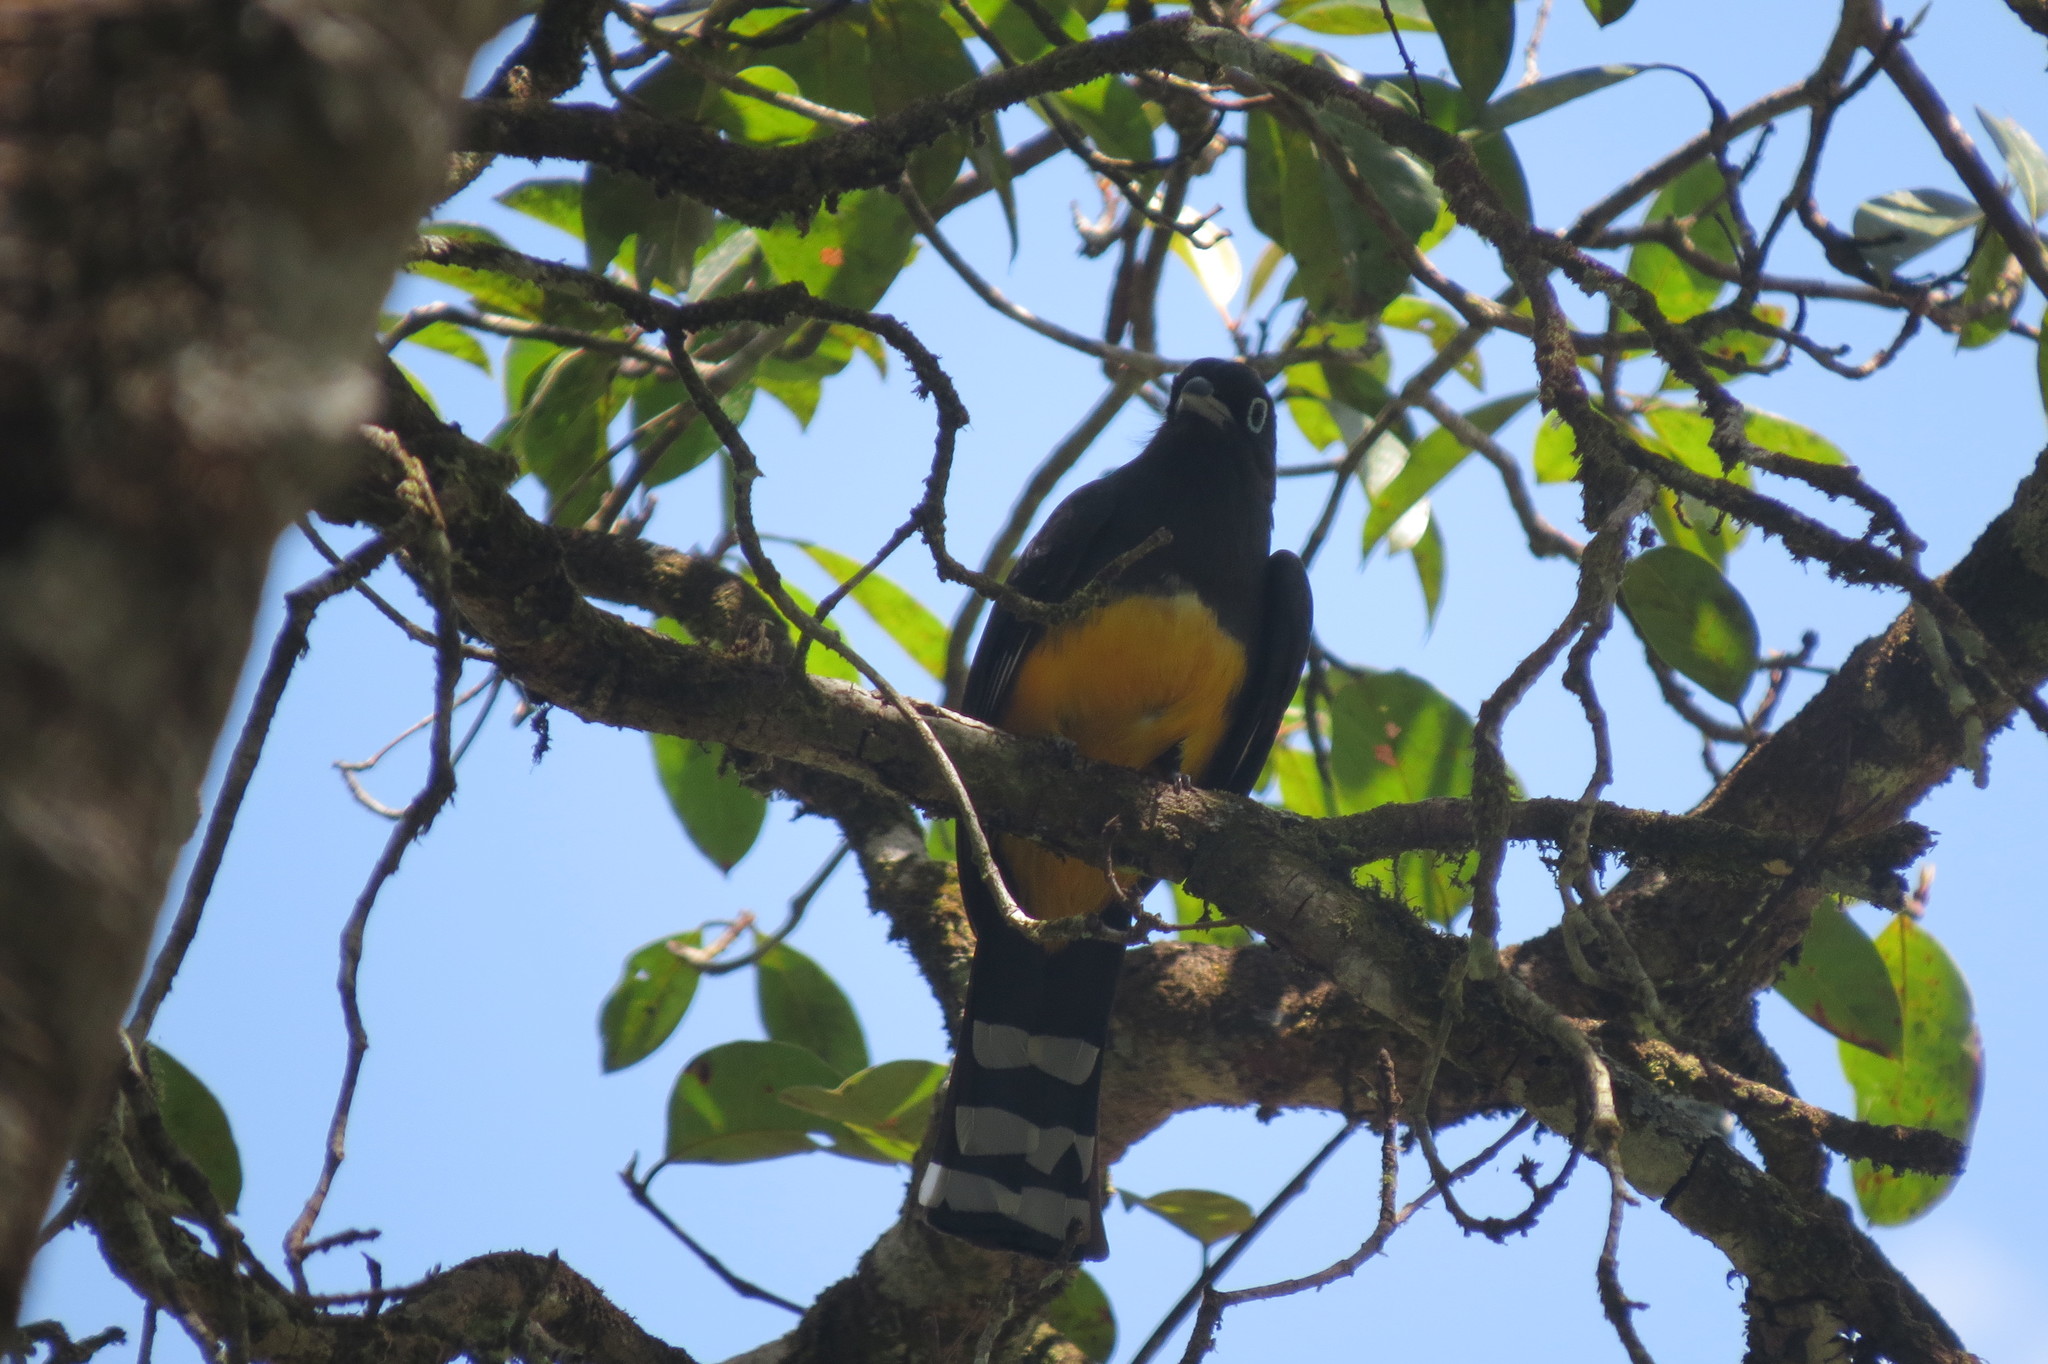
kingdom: Animalia
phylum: Chordata
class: Aves
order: Trogoniformes
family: Trogonidae
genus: Trogon
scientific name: Trogon melanocephalus
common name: Black-headed trogon
